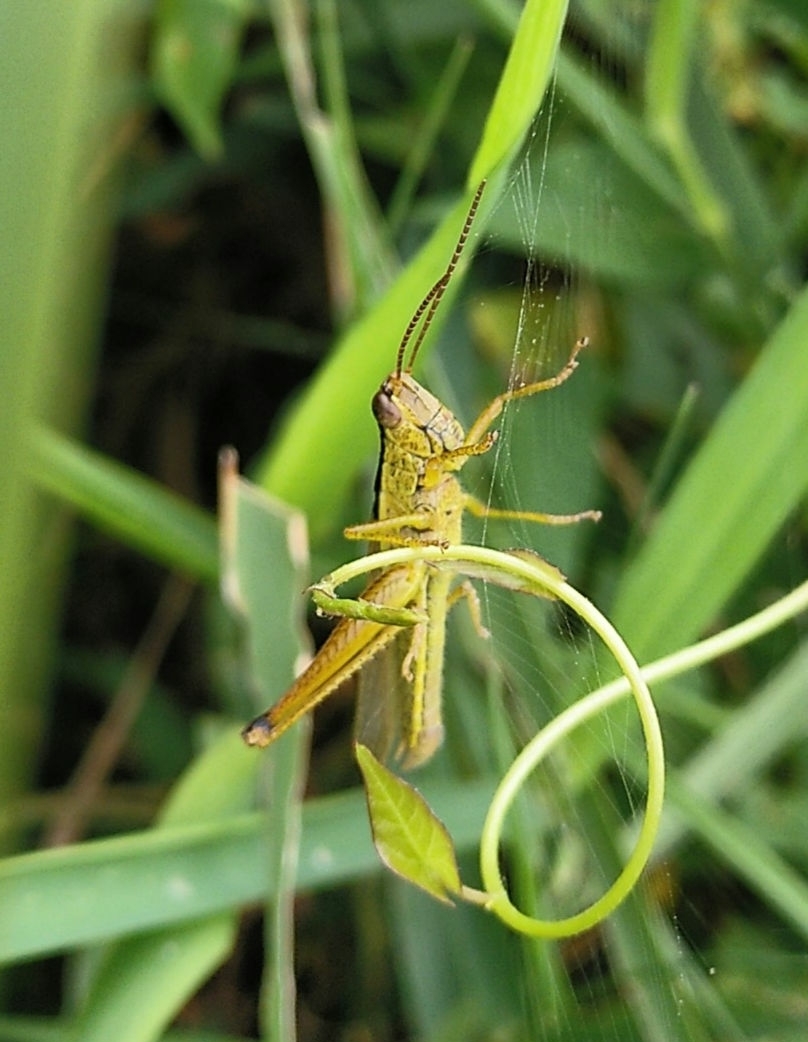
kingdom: Animalia
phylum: Arthropoda
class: Insecta
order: Orthoptera
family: Acrididae
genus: Mecostethus
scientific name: Mecostethus parapleurus
